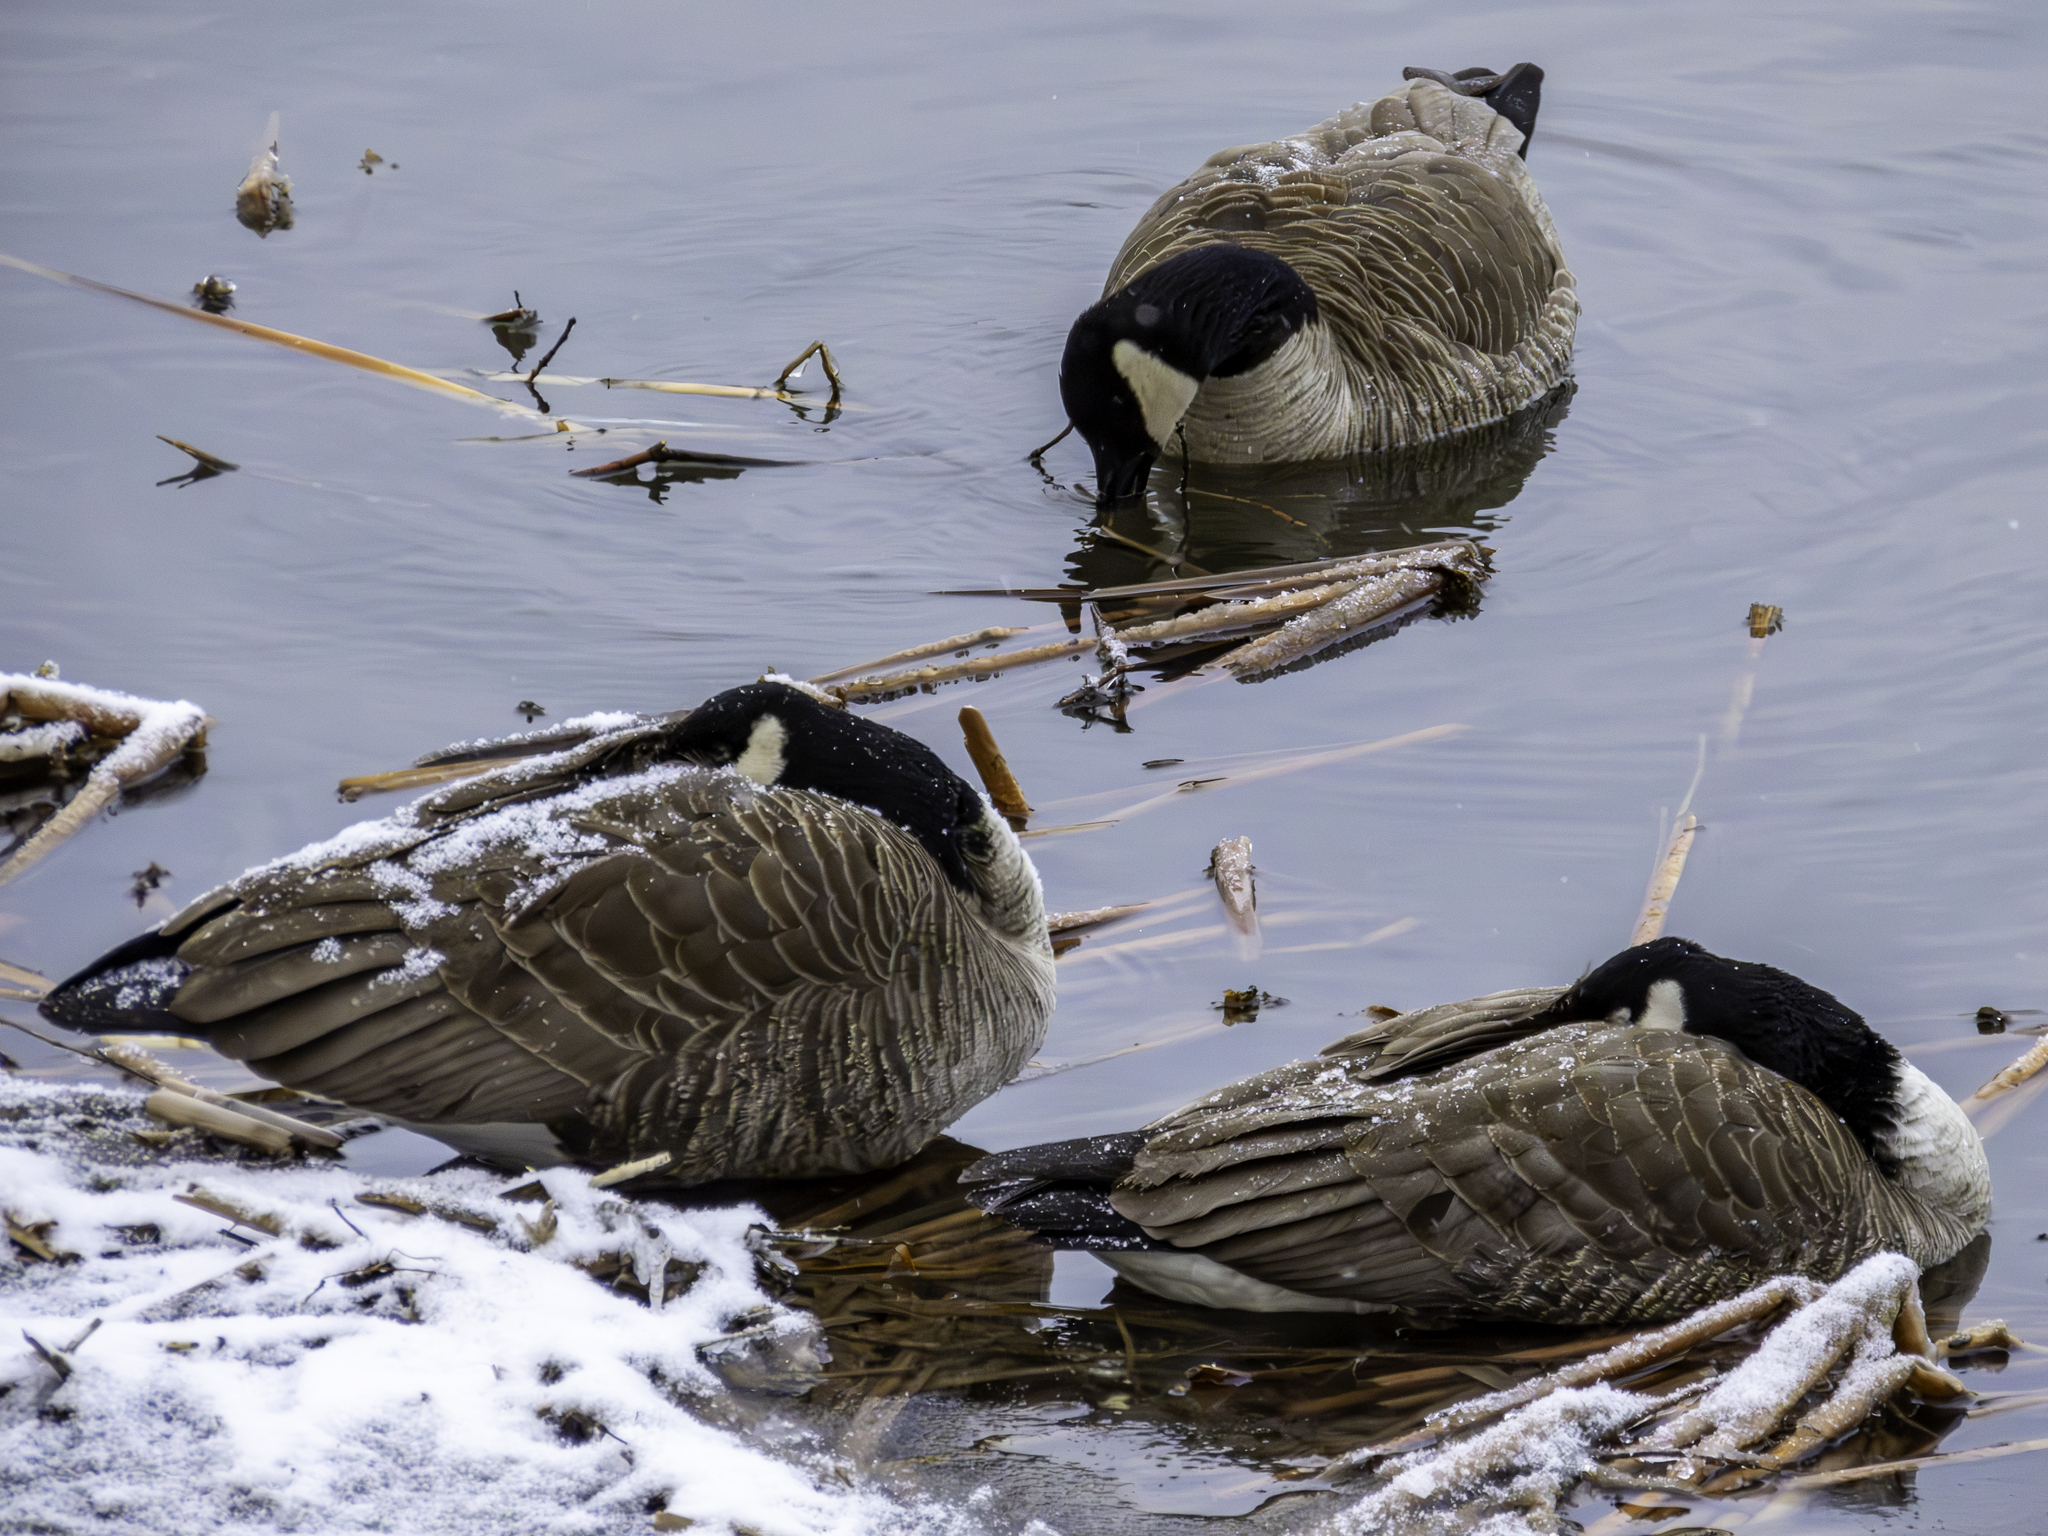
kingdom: Animalia
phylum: Chordata
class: Aves
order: Anseriformes
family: Anatidae
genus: Branta
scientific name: Branta canadensis
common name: Canada goose
